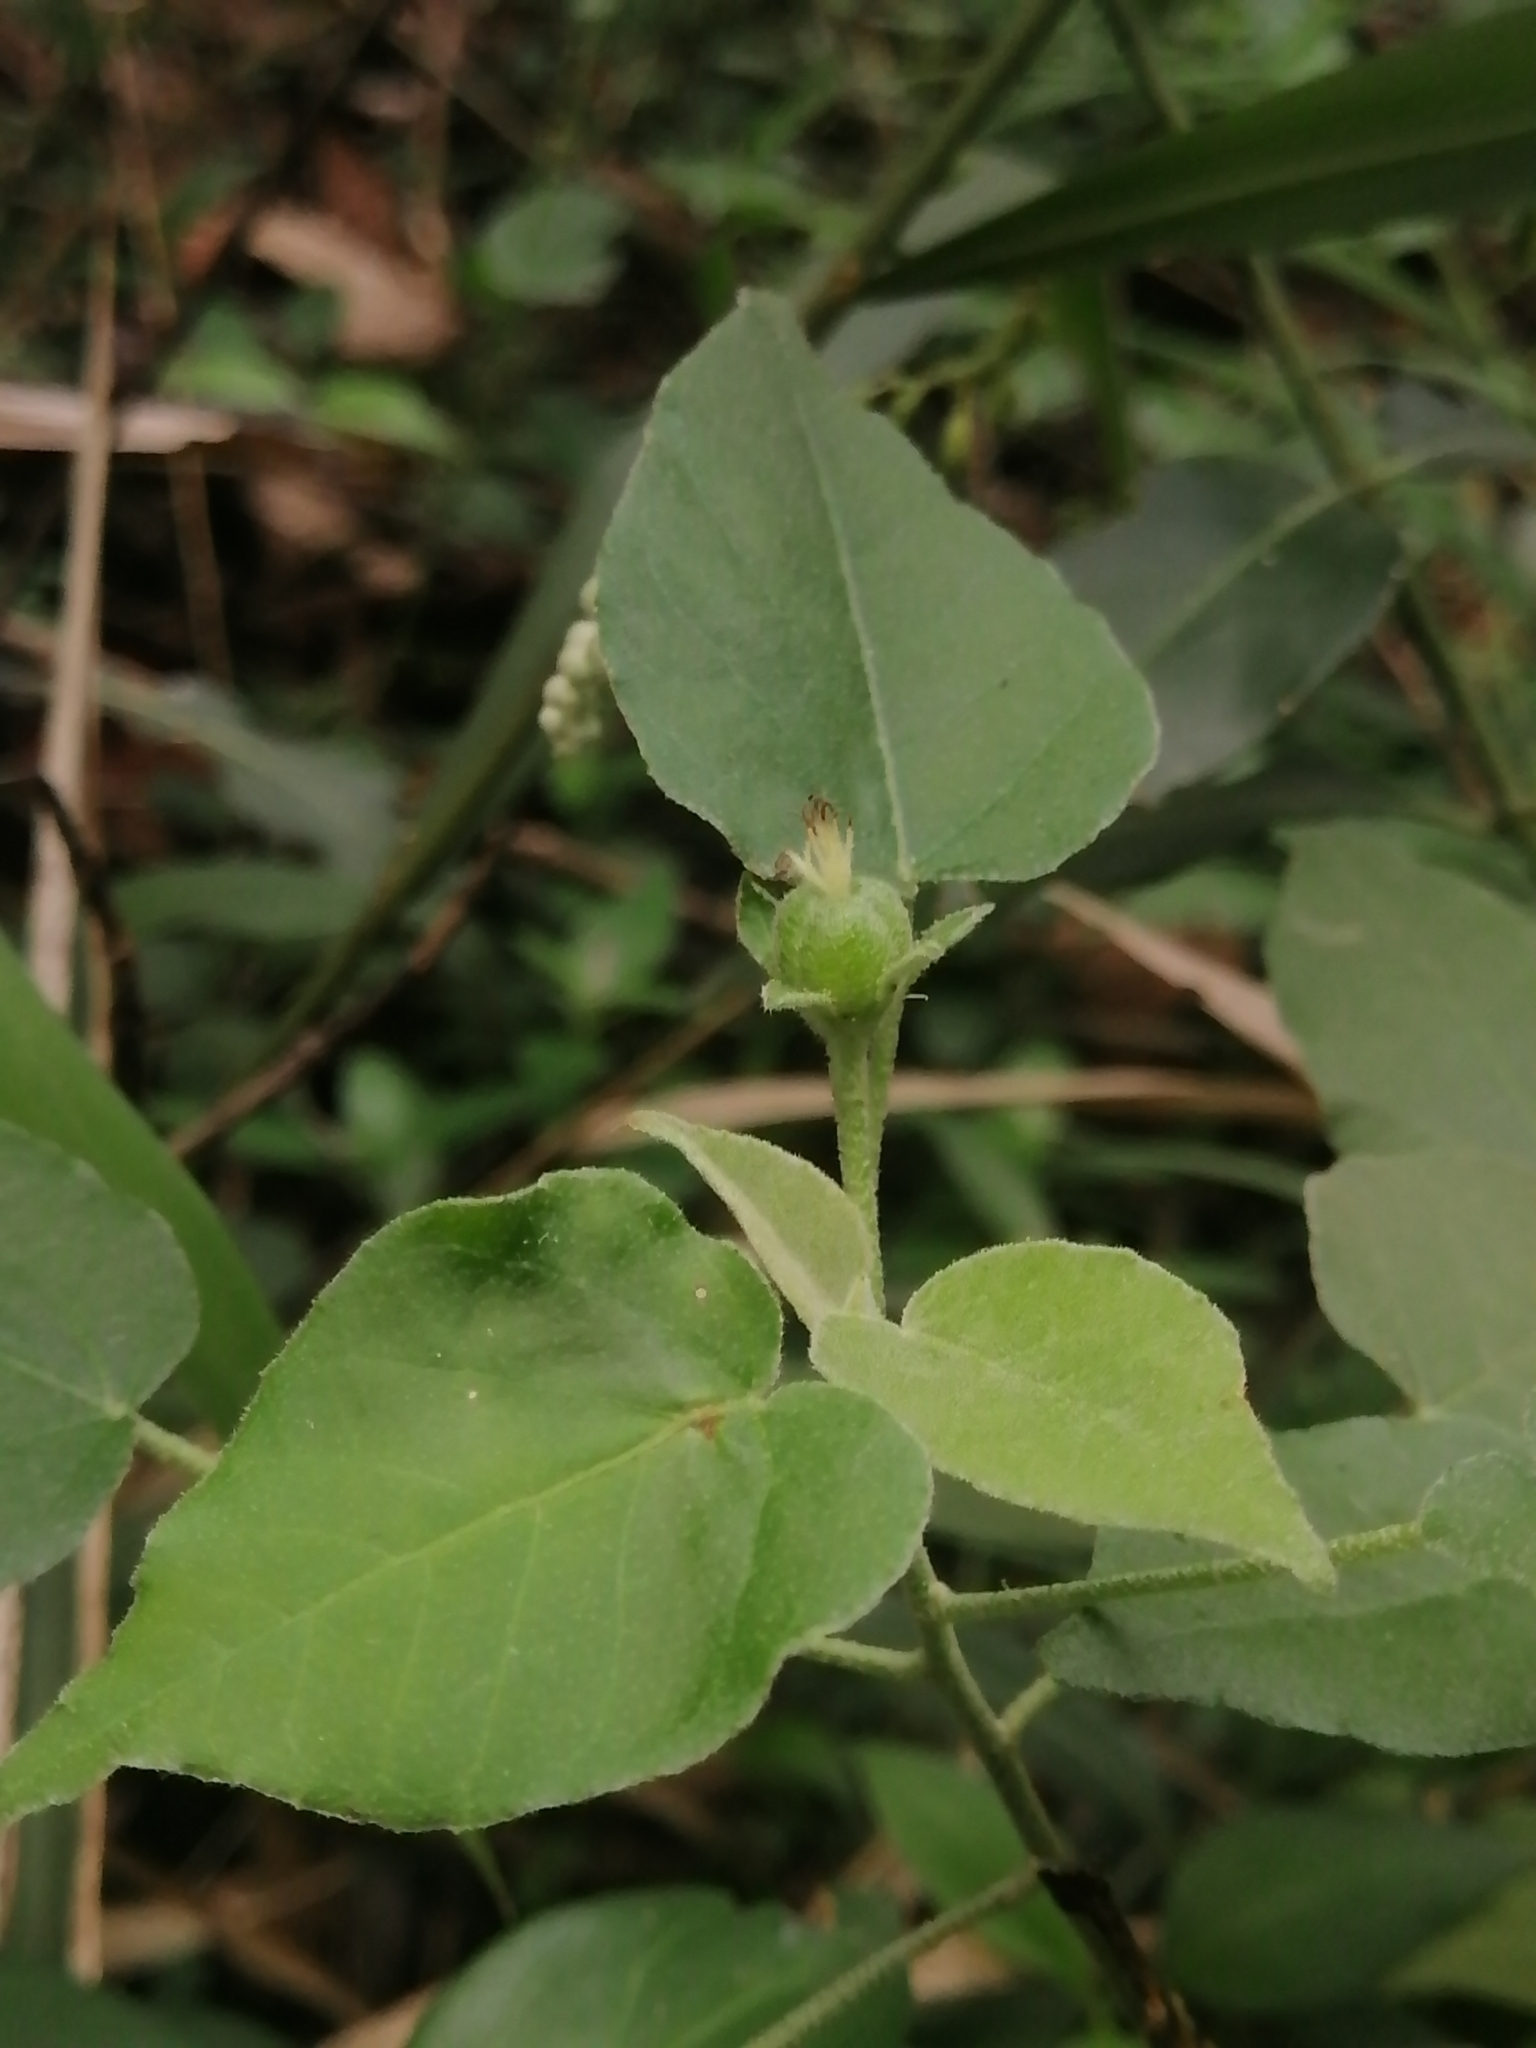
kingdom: Plantae
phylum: Tracheophyta
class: Magnoliopsida
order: Malpighiales
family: Euphorbiaceae
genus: Croton
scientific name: Croton humilis
